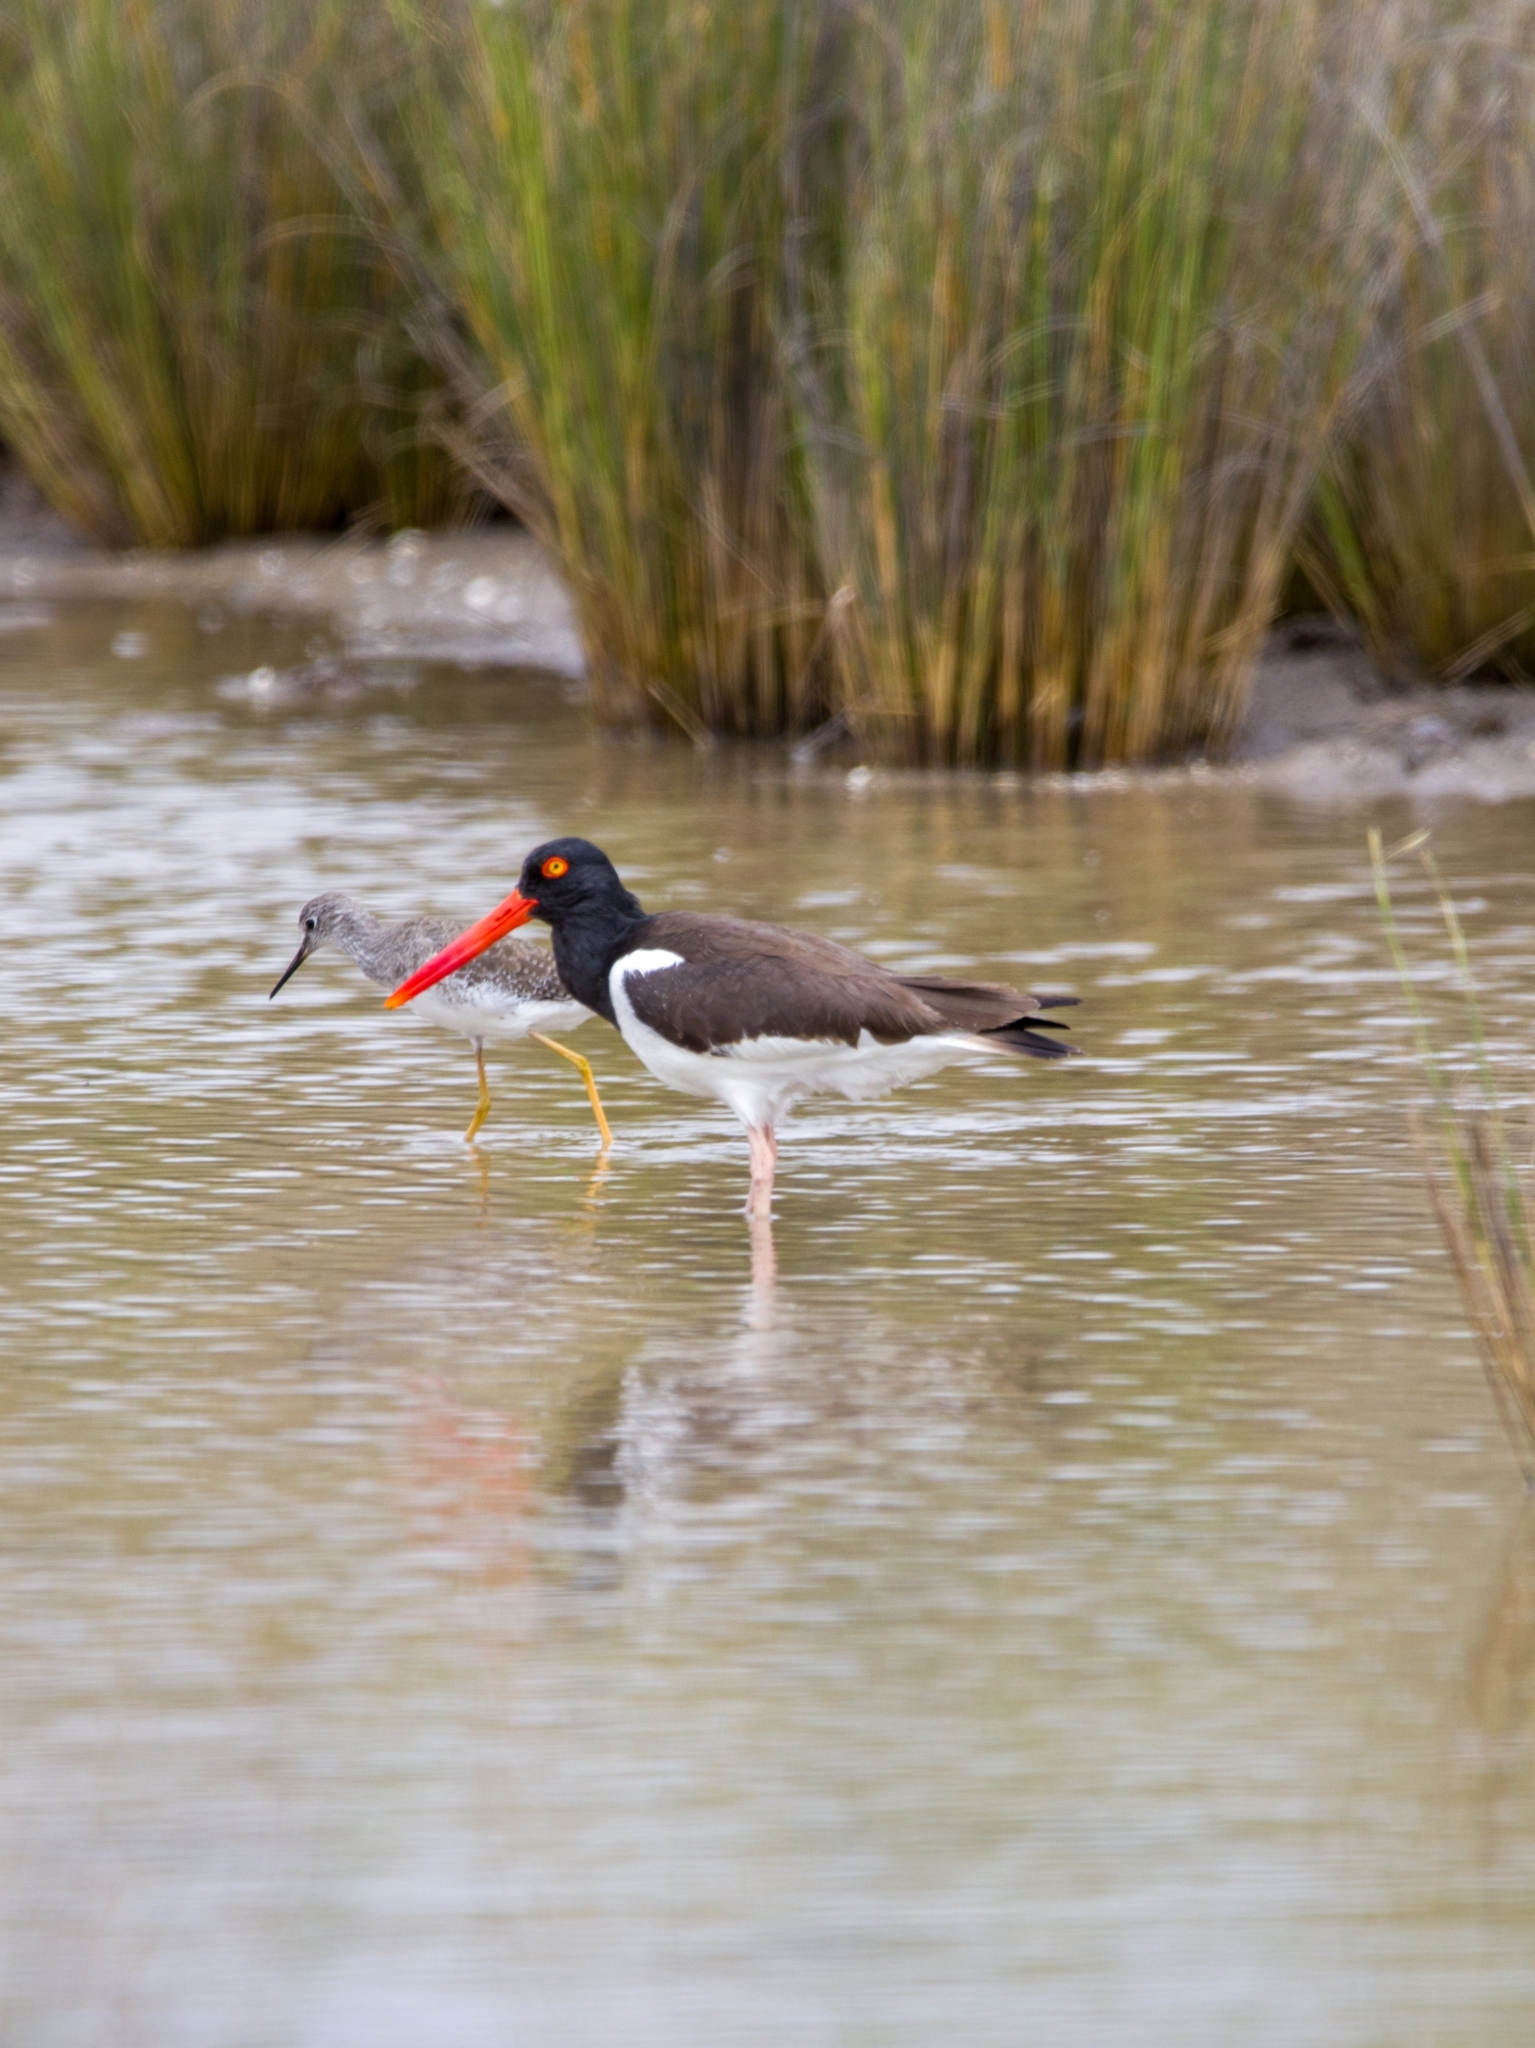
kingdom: Animalia
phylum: Chordata
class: Aves
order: Charadriiformes
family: Haematopodidae
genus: Haematopus
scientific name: Haematopus palliatus
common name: American oystercatcher
